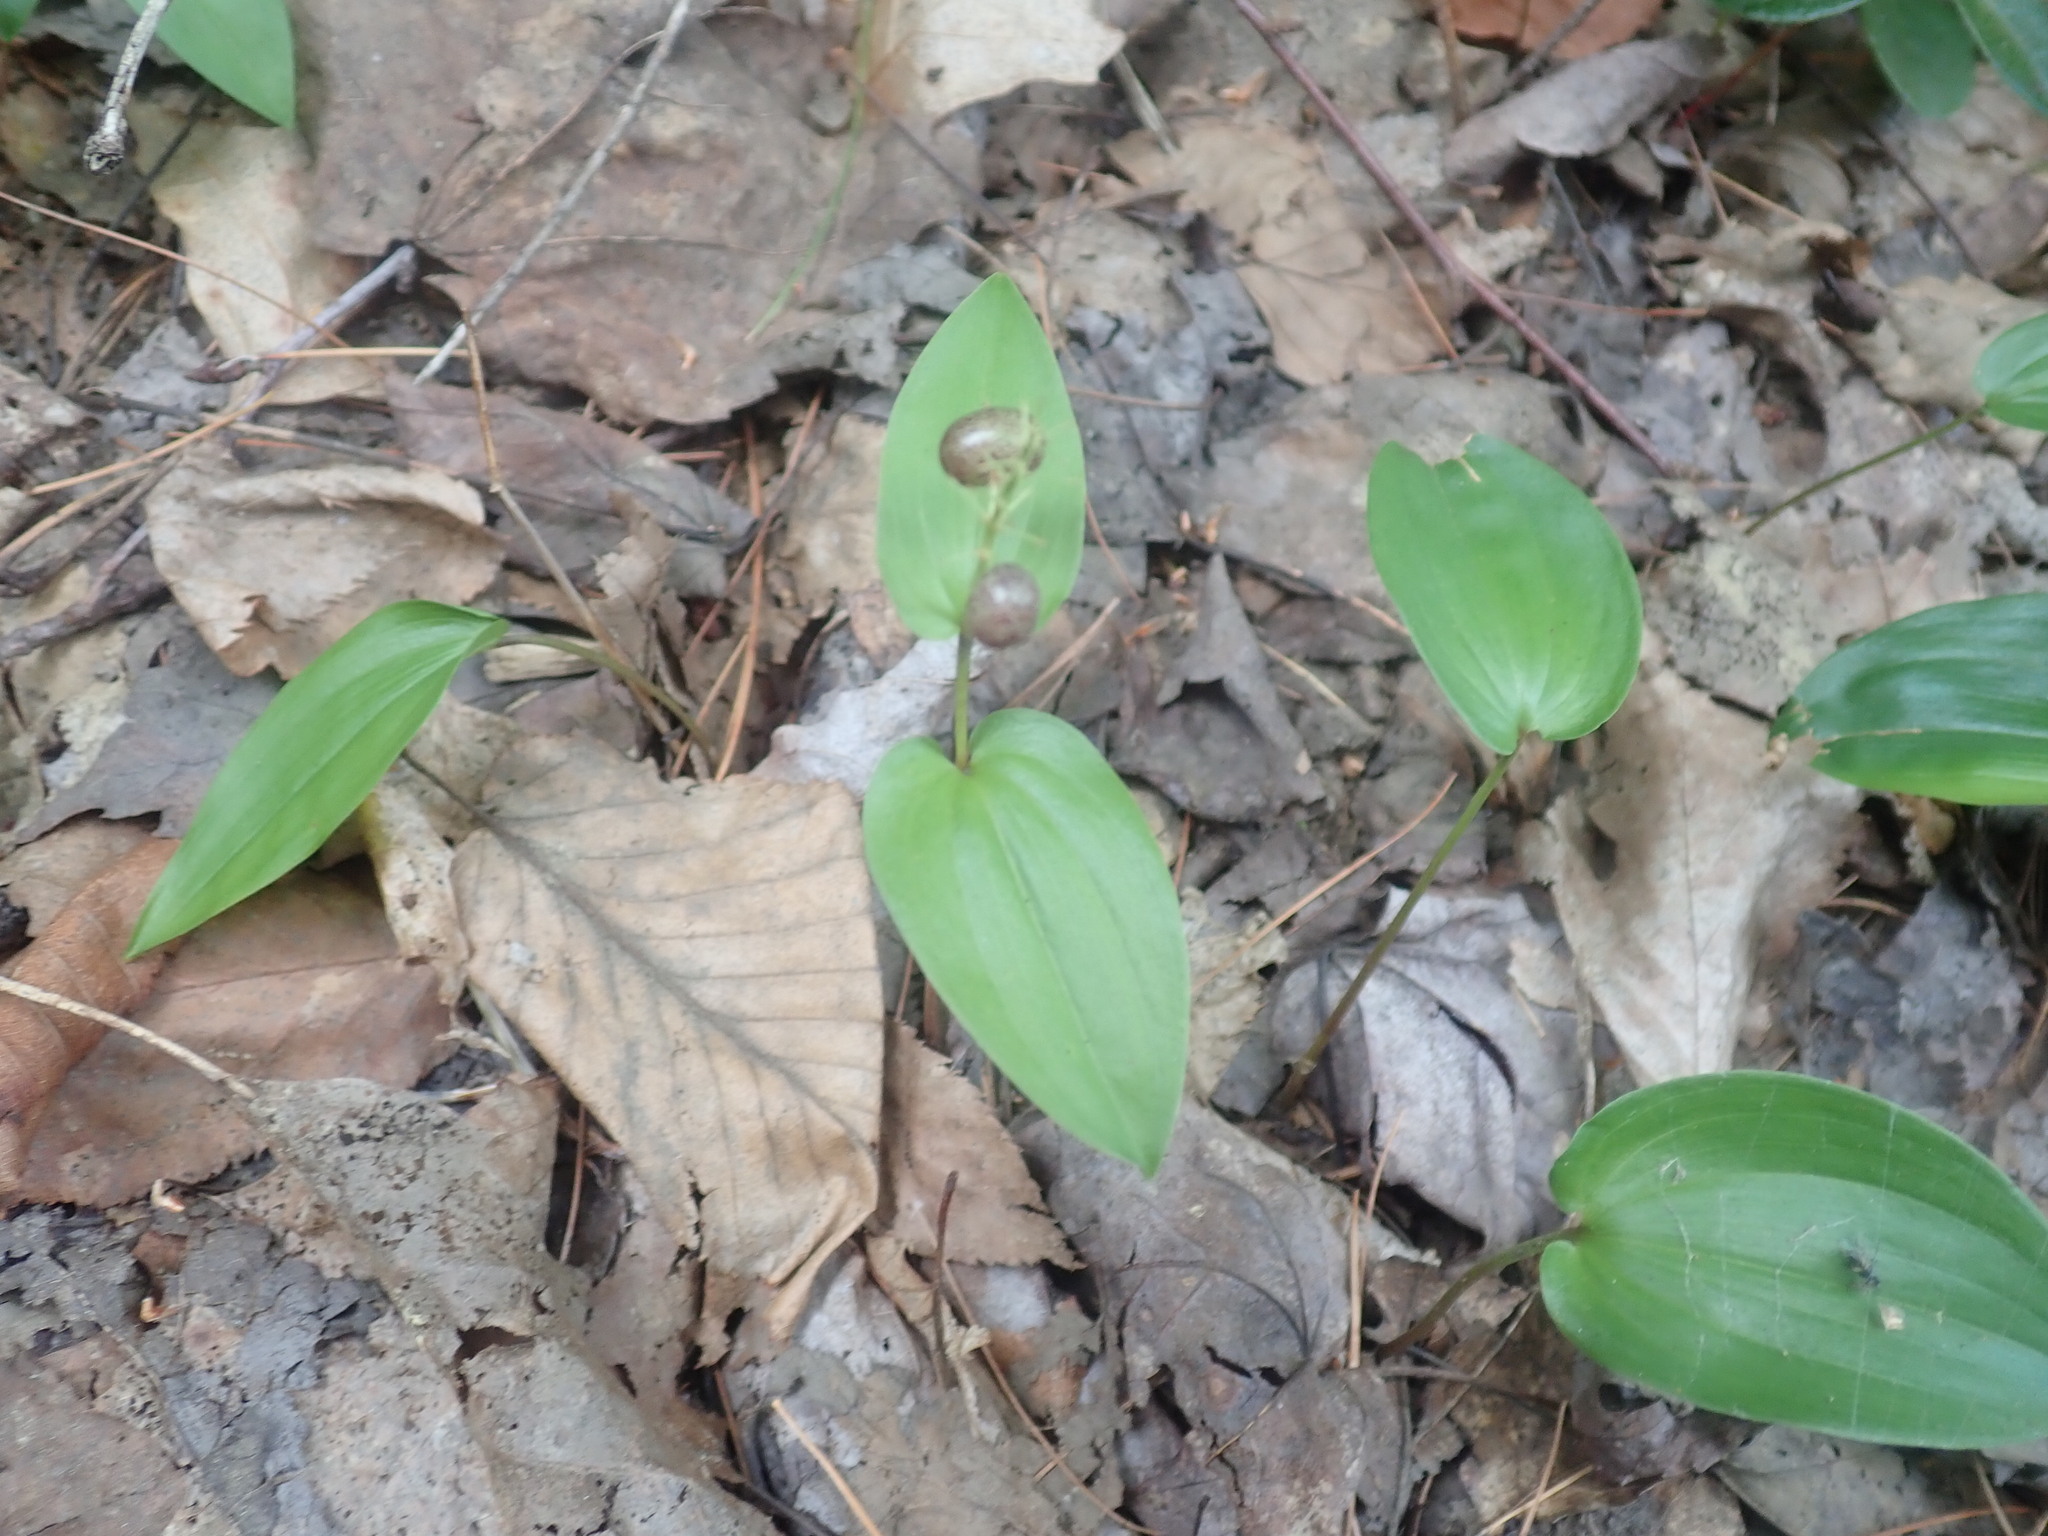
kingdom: Plantae
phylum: Tracheophyta
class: Liliopsida
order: Asparagales
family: Asparagaceae
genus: Maianthemum
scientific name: Maianthemum canadense
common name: False lily-of-the-valley
